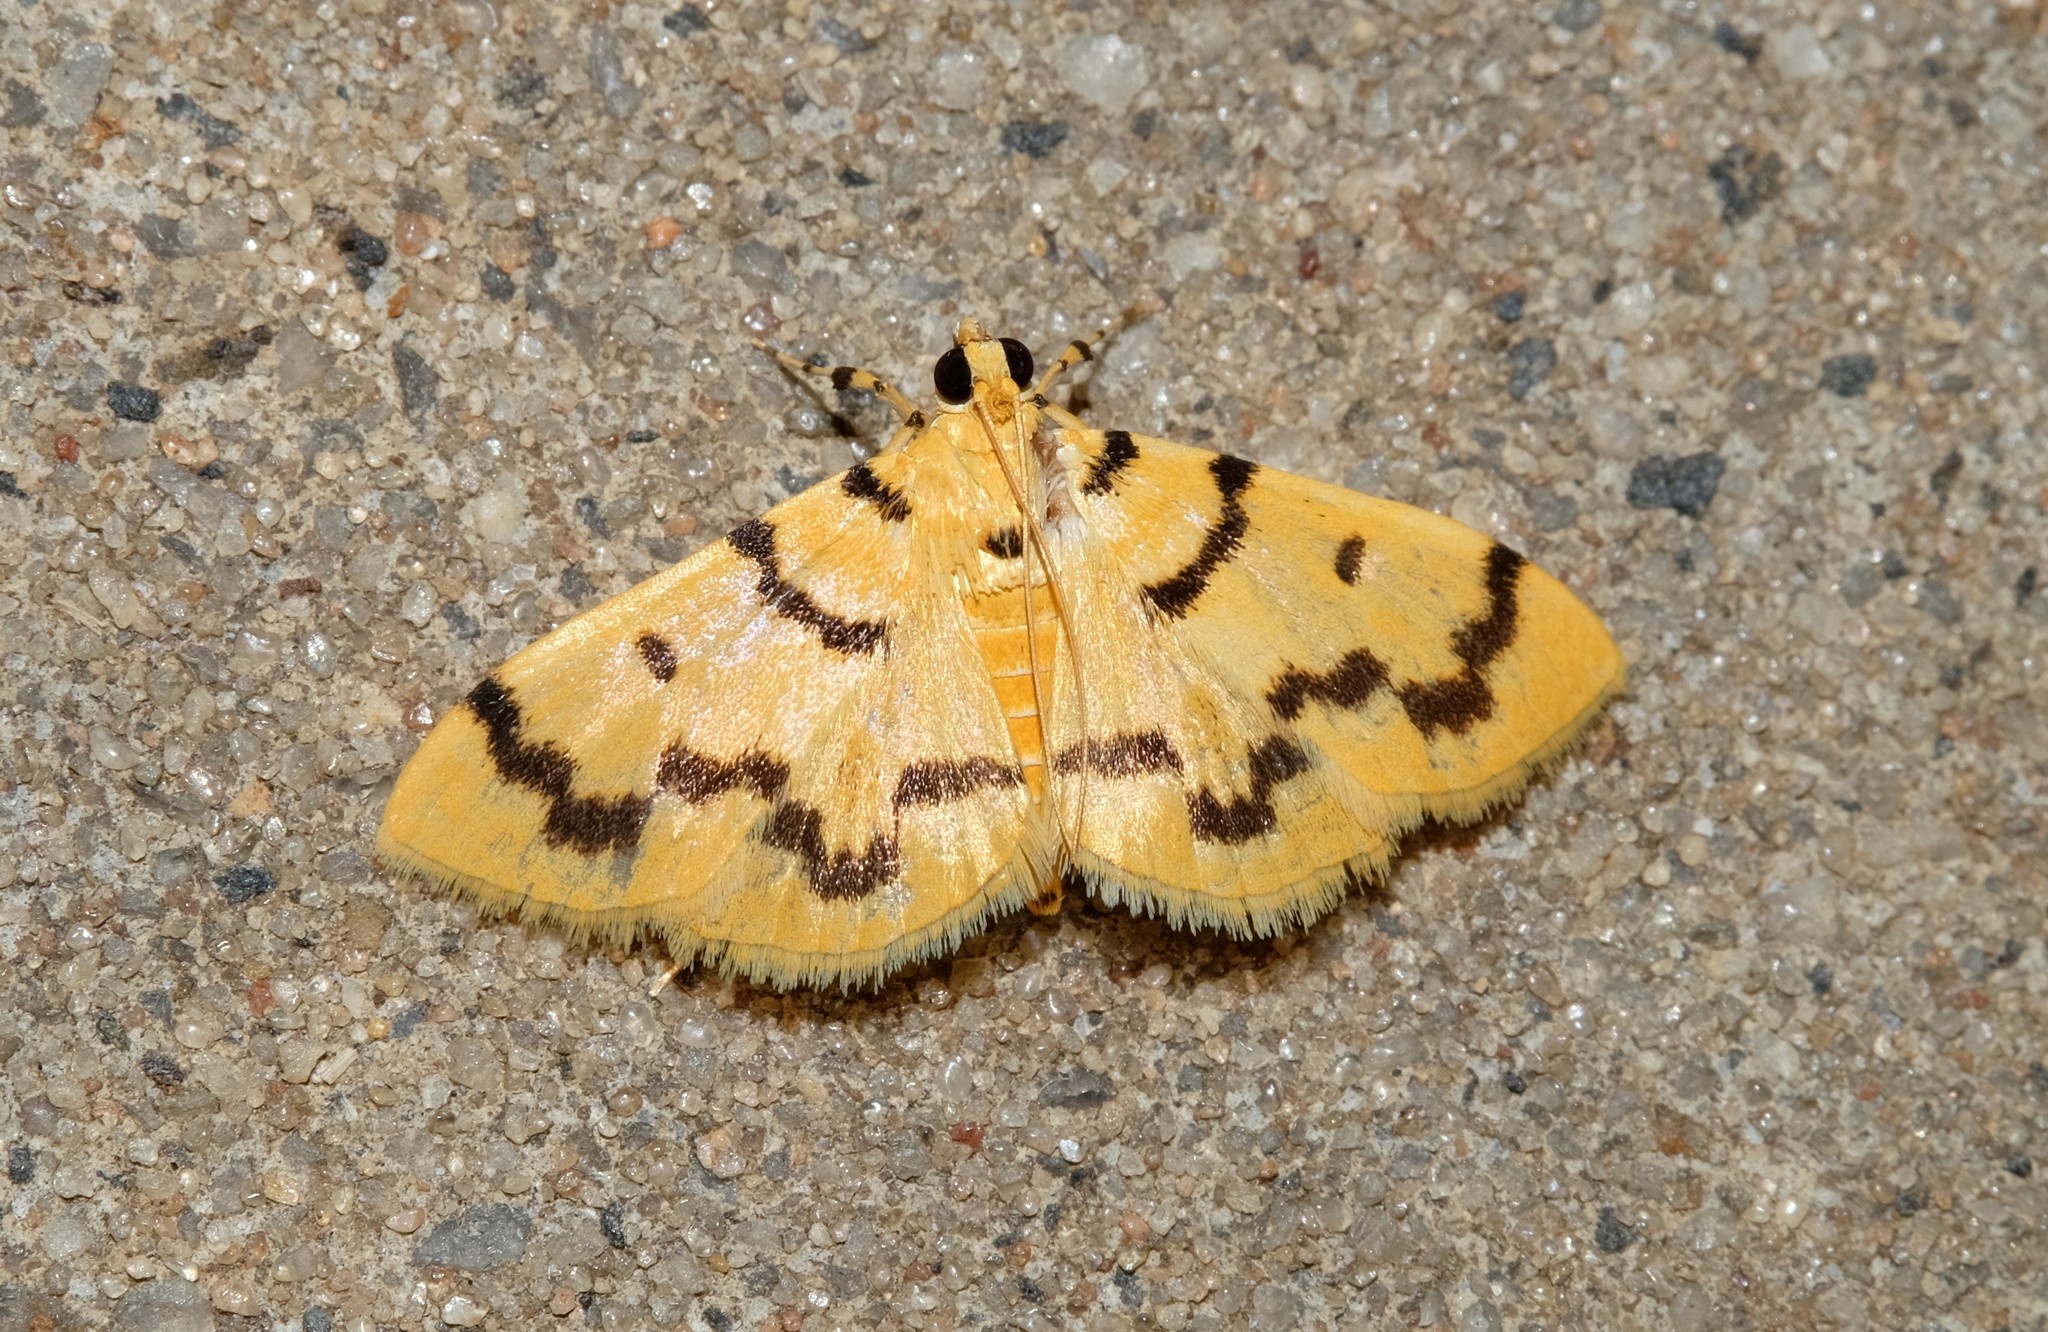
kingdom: Animalia
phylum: Arthropoda
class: Insecta
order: Lepidoptera
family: Crambidae
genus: Dichocrocis
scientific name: Dichocrocis clytusalis
